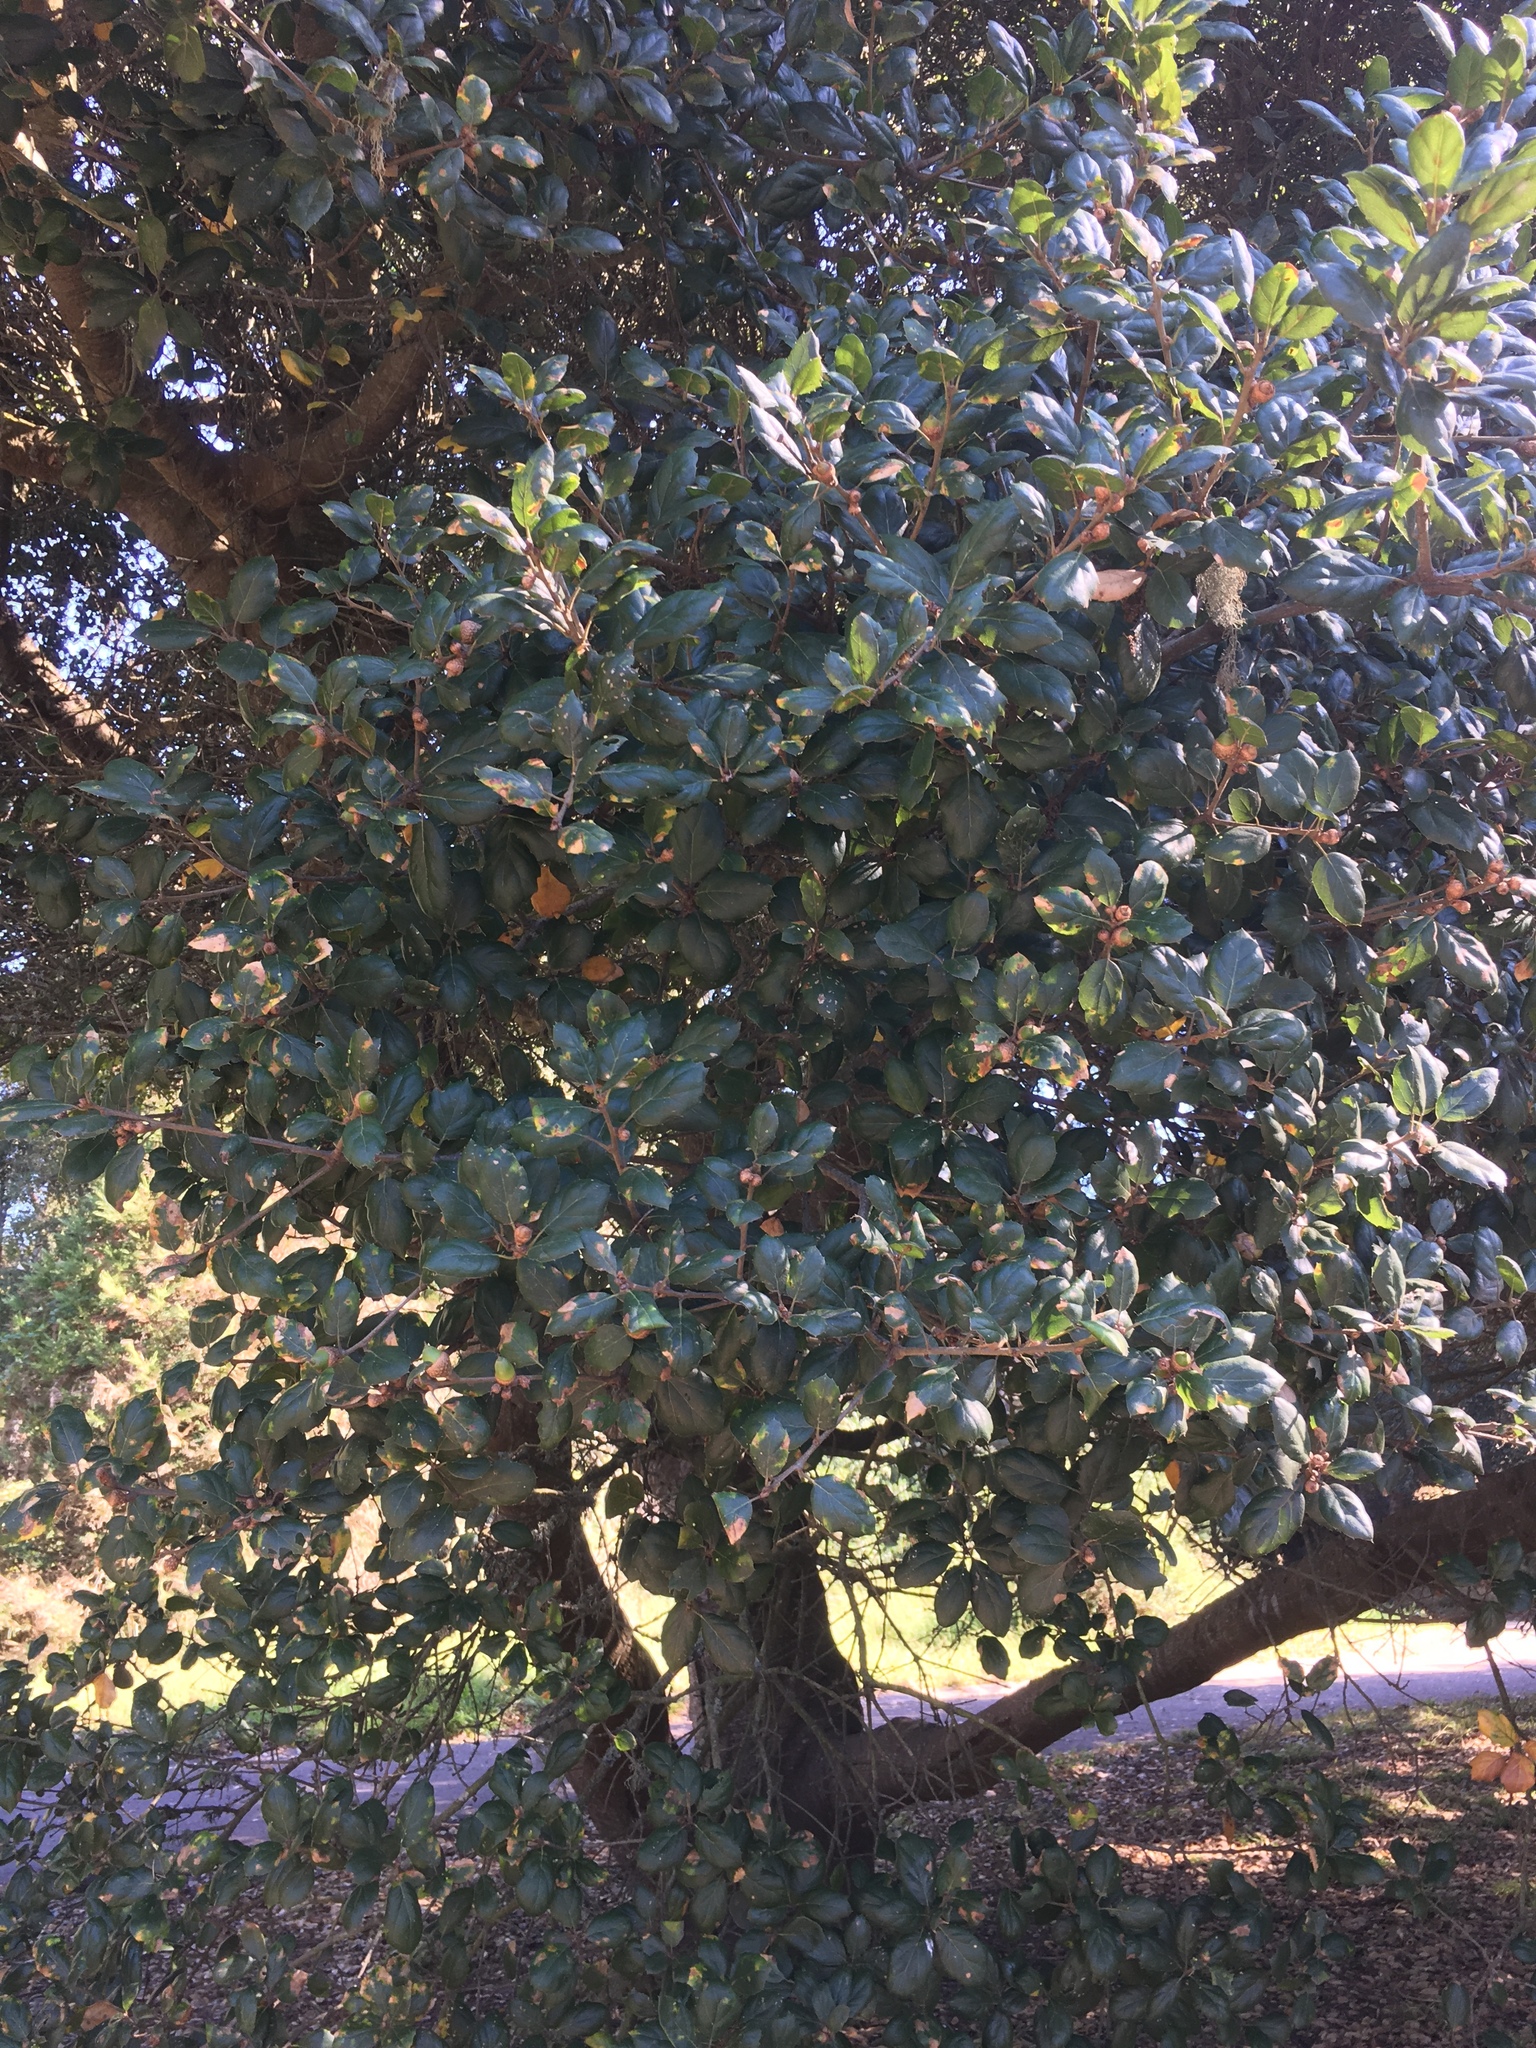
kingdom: Plantae
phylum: Tracheophyta
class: Magnoliopsida
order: Fagales
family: Fagaceae
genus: Quercus
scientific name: Quercus agrifolia
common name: California live oak
